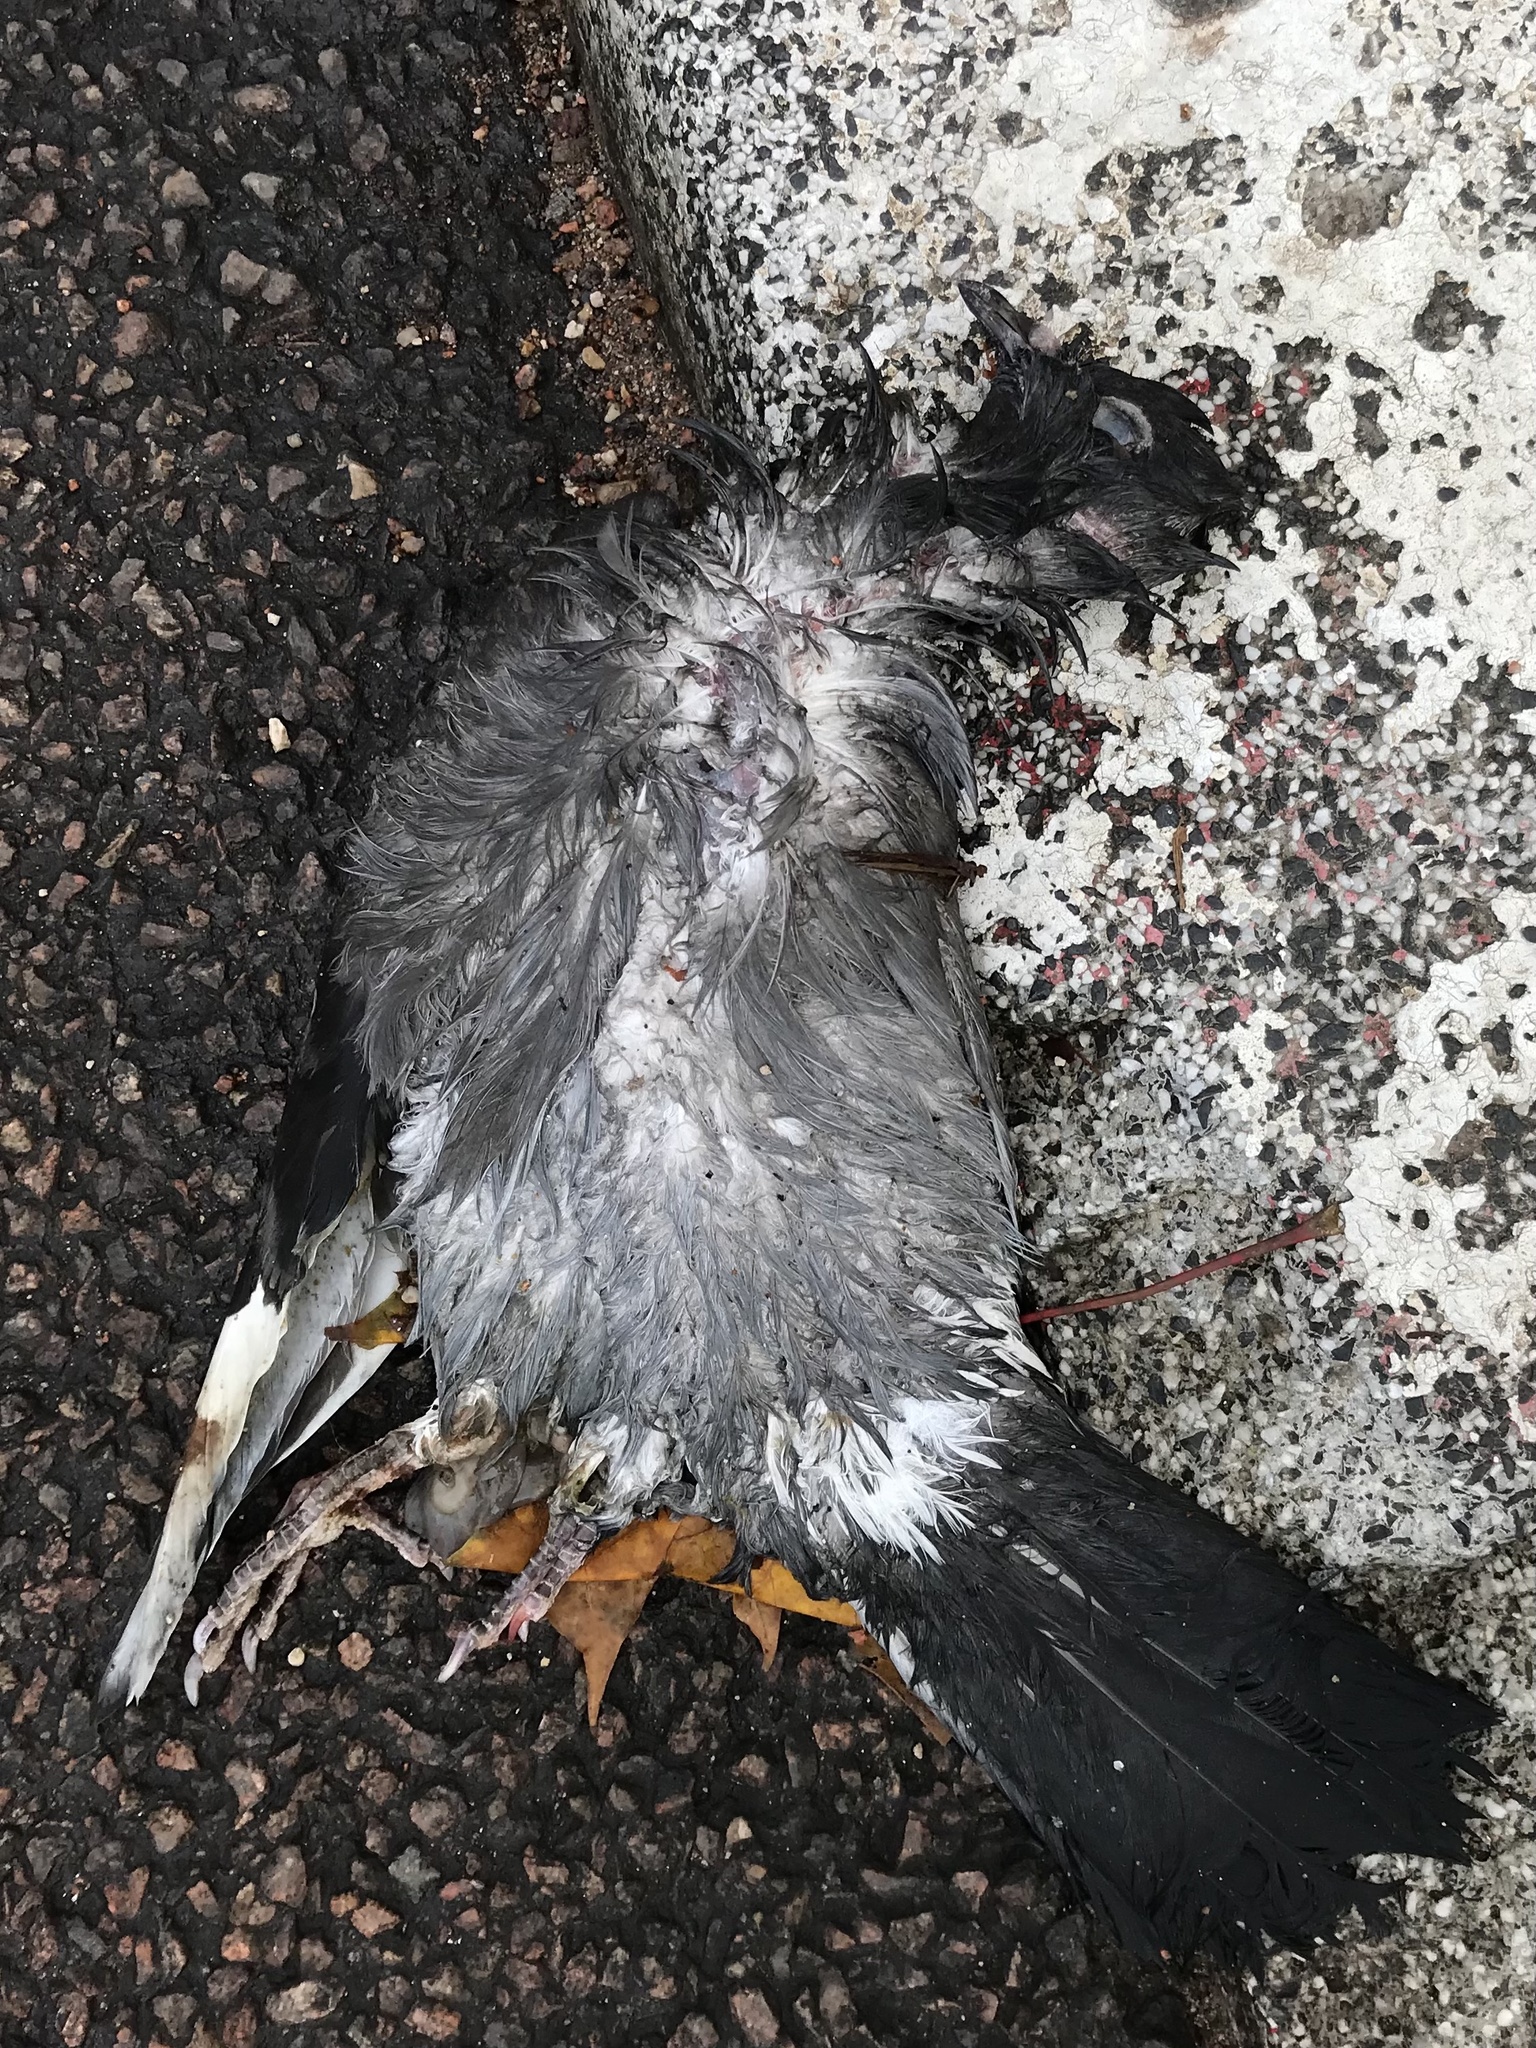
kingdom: Animalia
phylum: Chordata
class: Aves
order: Columbiformes
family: Columbidae
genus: Columba
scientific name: Columba livia
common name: Rock pigeon
